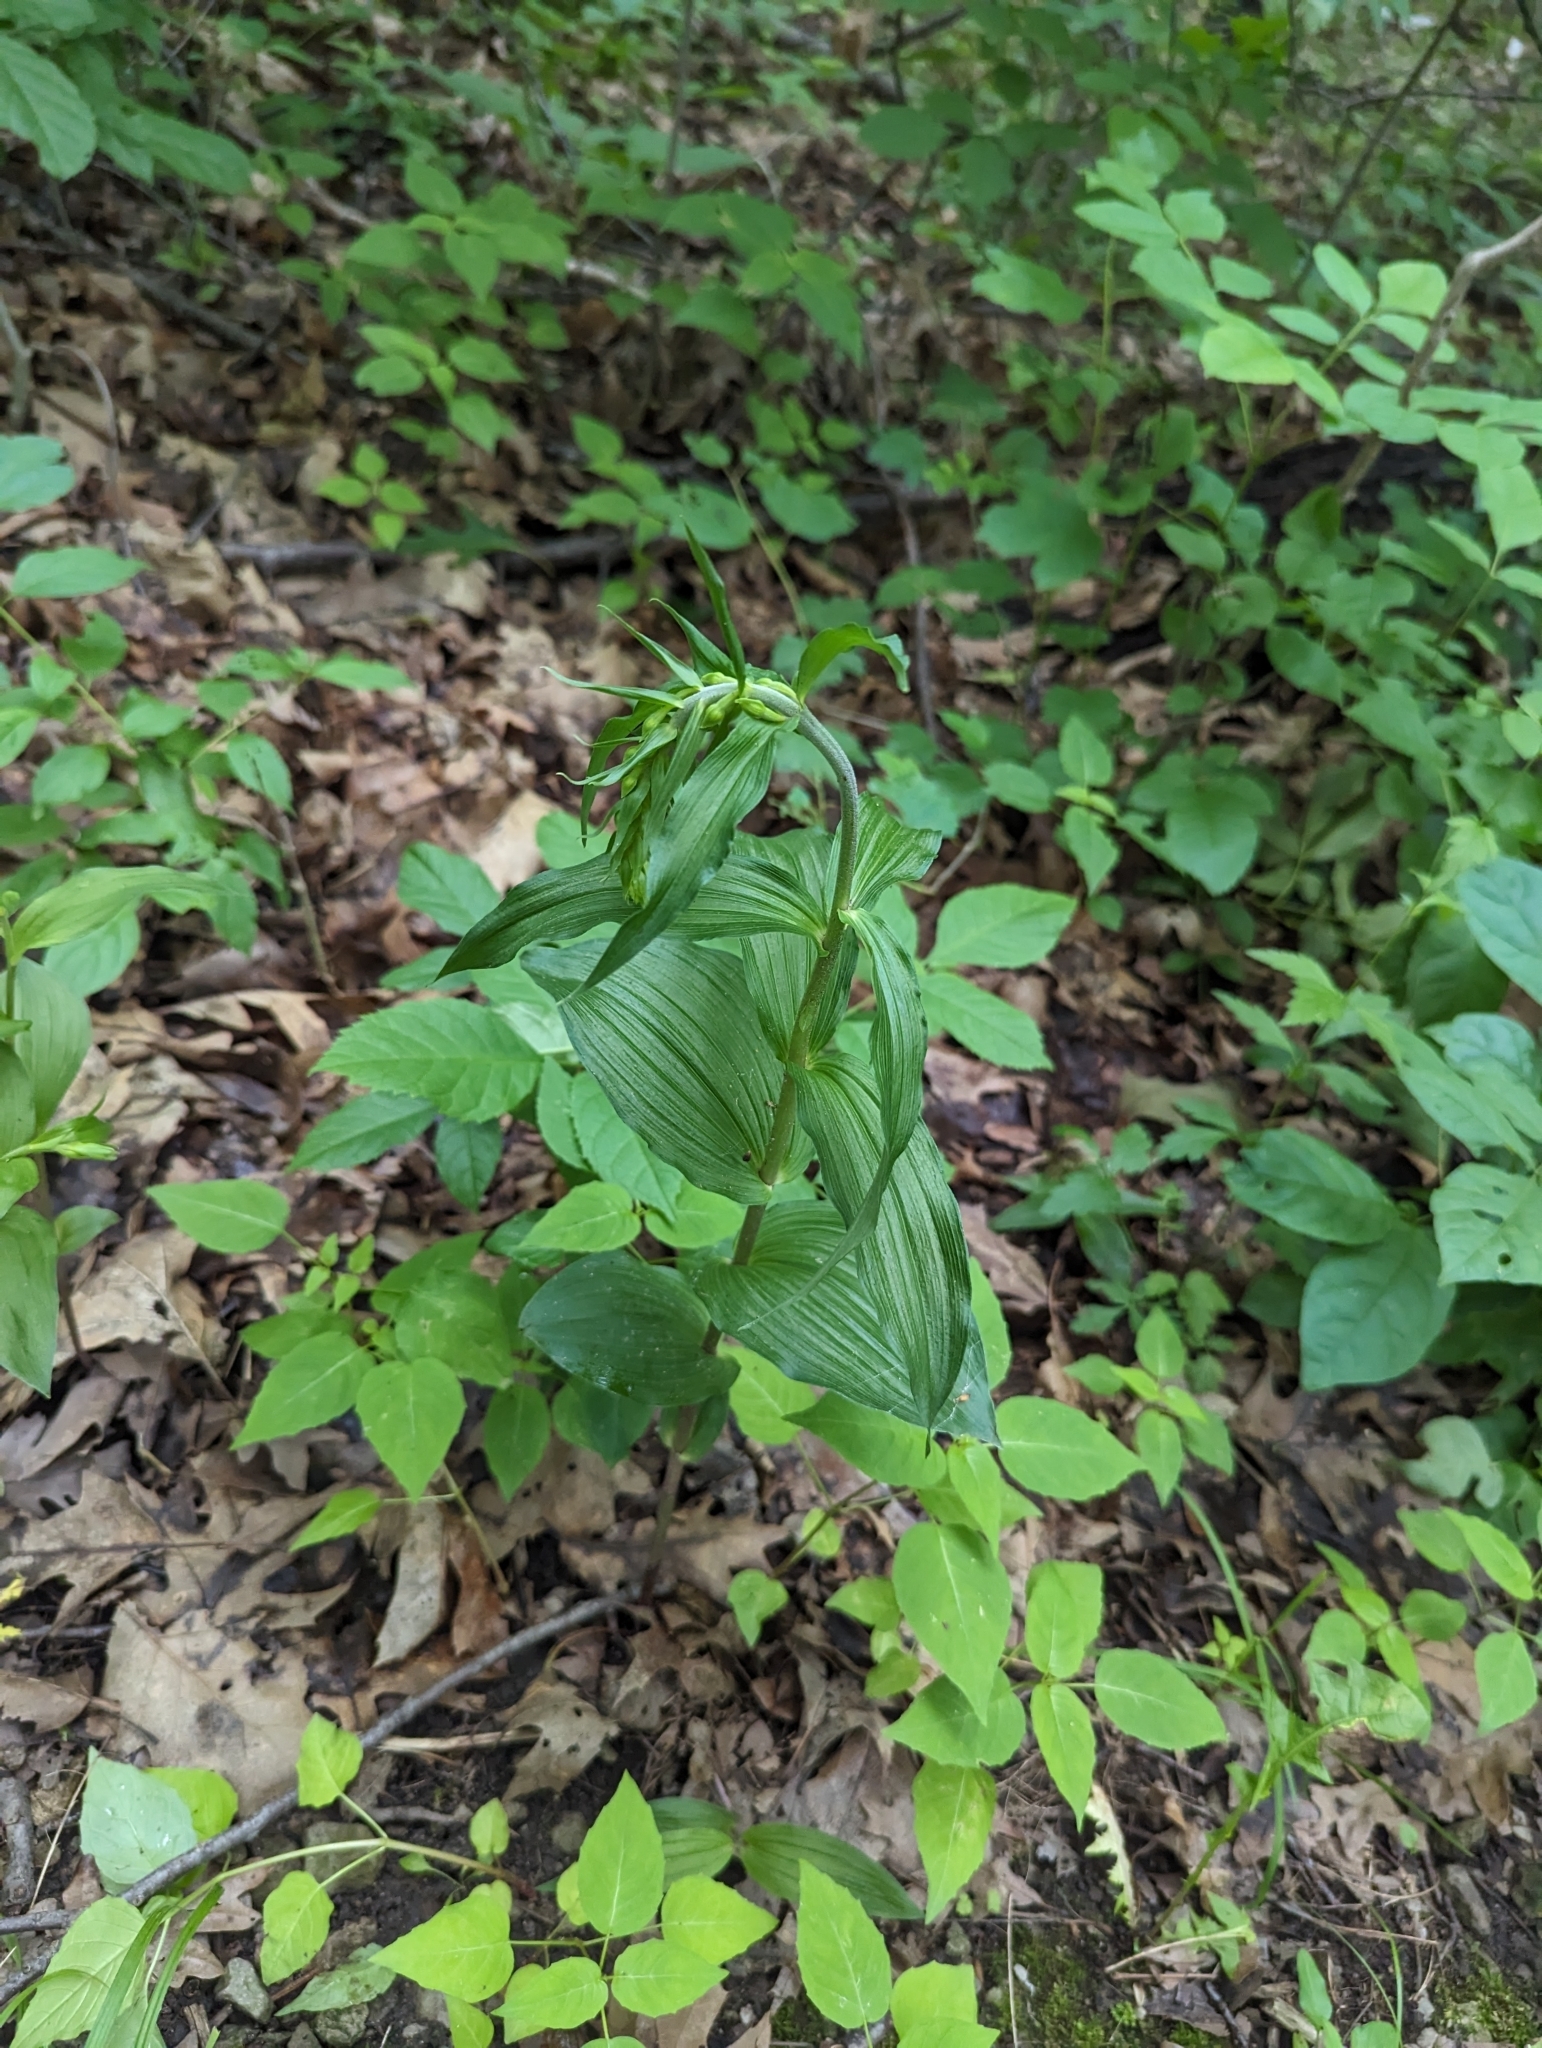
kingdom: Plantae
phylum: Tracheophyta
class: Liliopsida
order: Asparagales
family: Orchidaceae
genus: Epipactis
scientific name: Epipactis helleborine
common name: Broad-leaved helleborine
